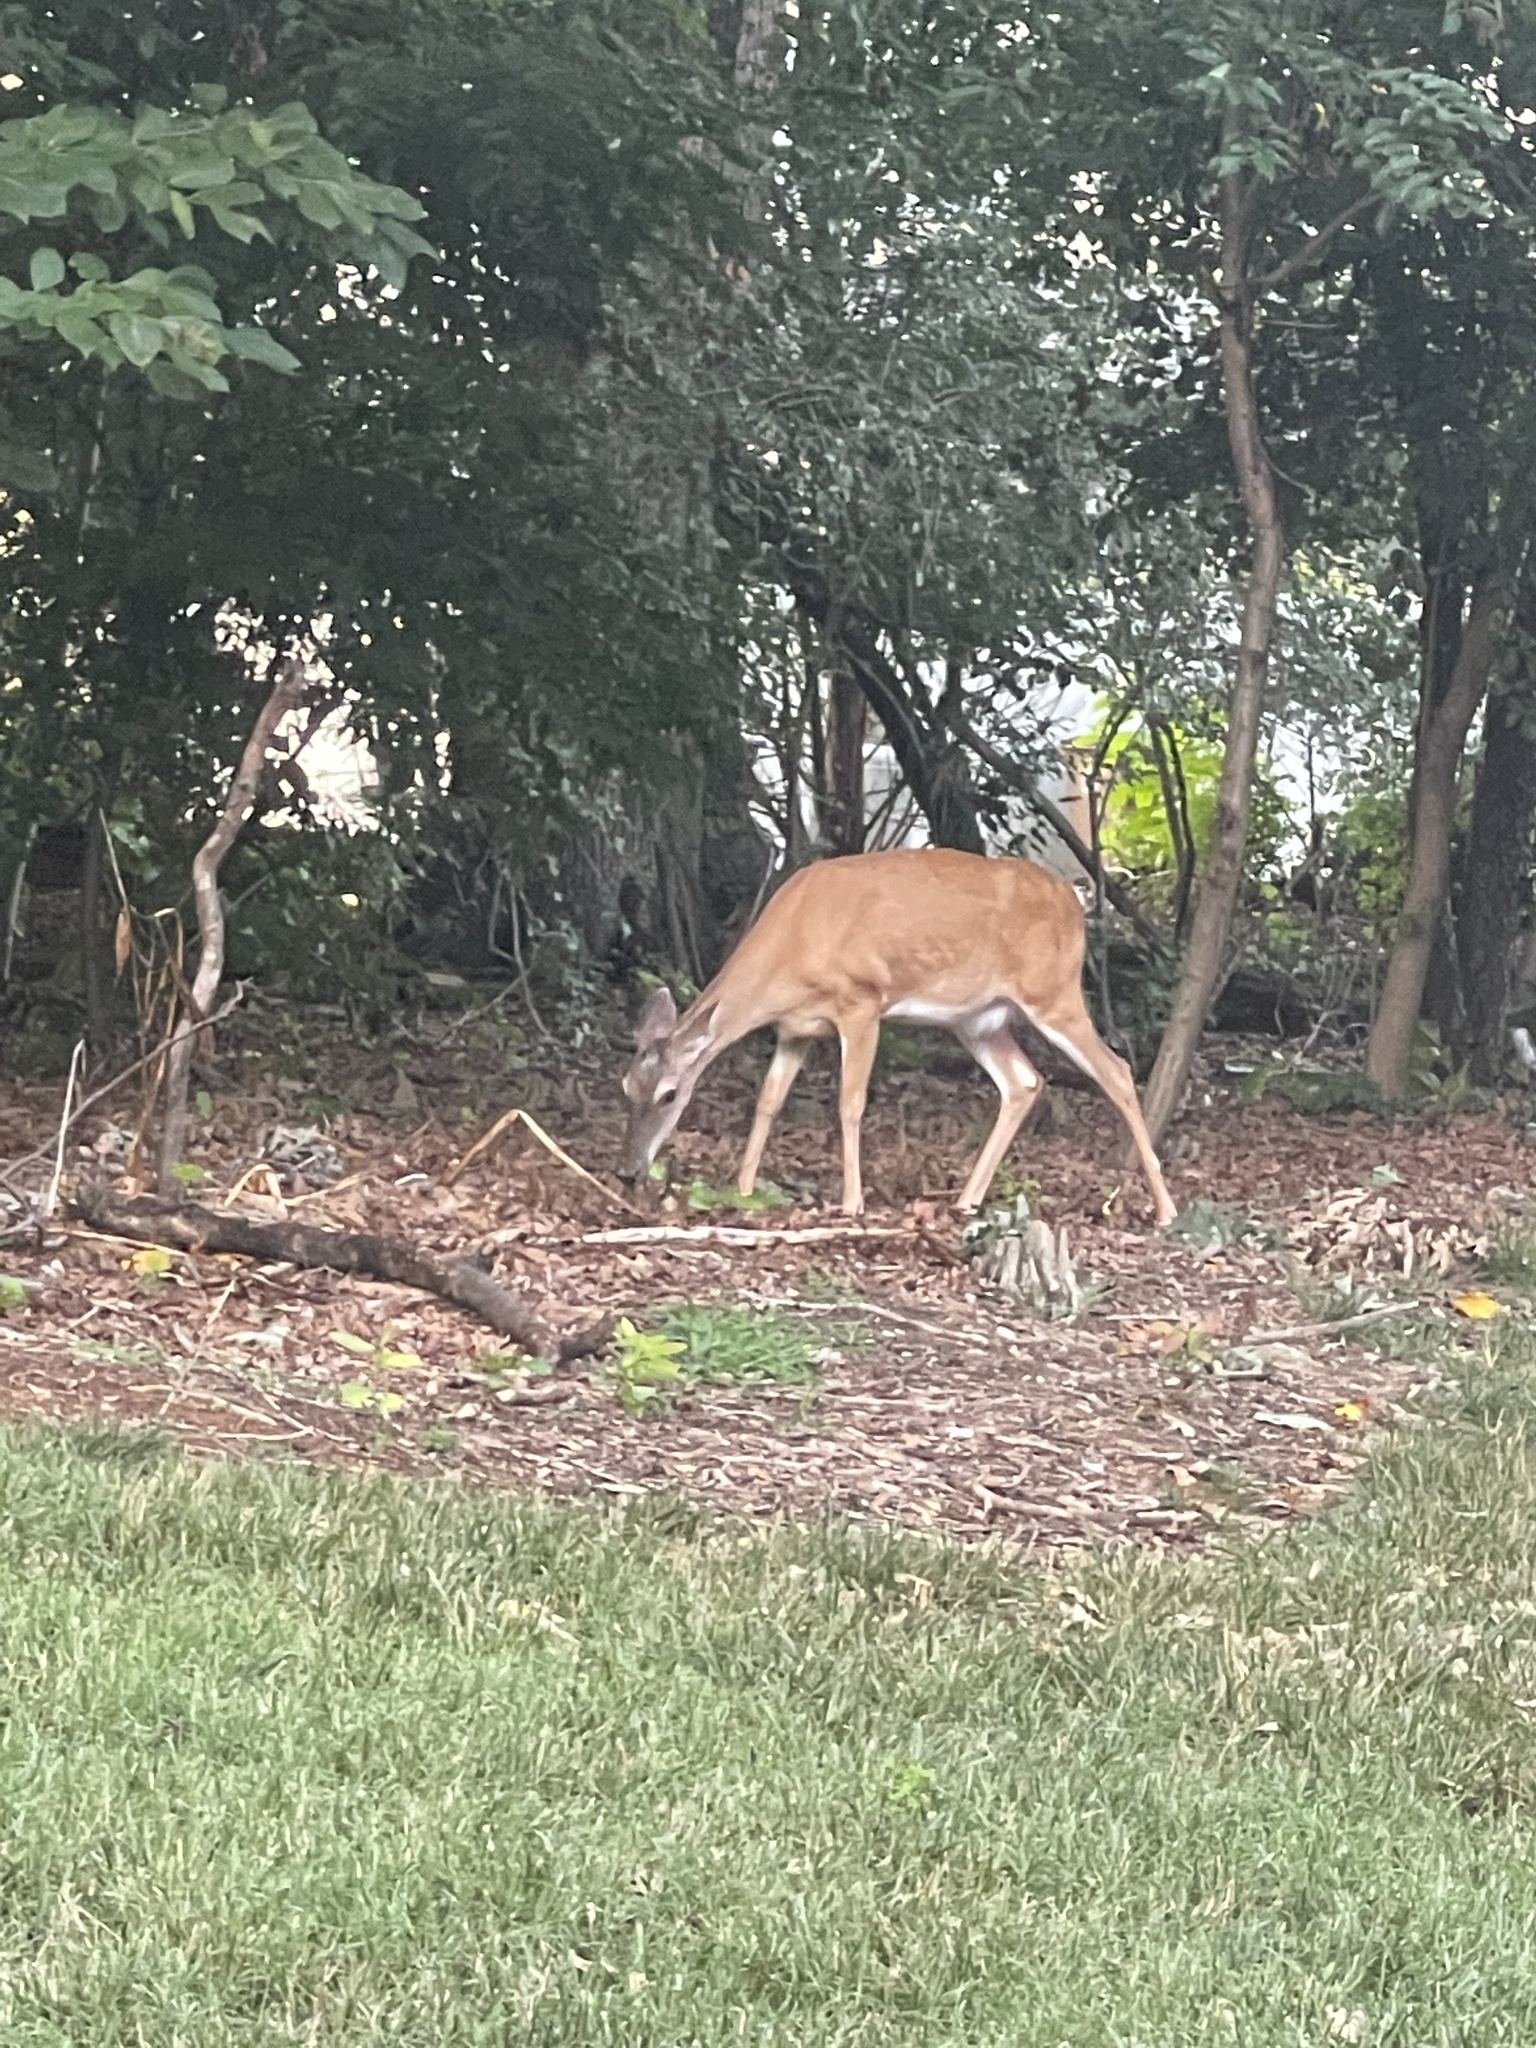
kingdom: Animalia
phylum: Chordata
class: Mammalia
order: Artiodactyla
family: Cervidae
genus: Odocoileus
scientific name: Odocoileus virginianus
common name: White-tailed deer
